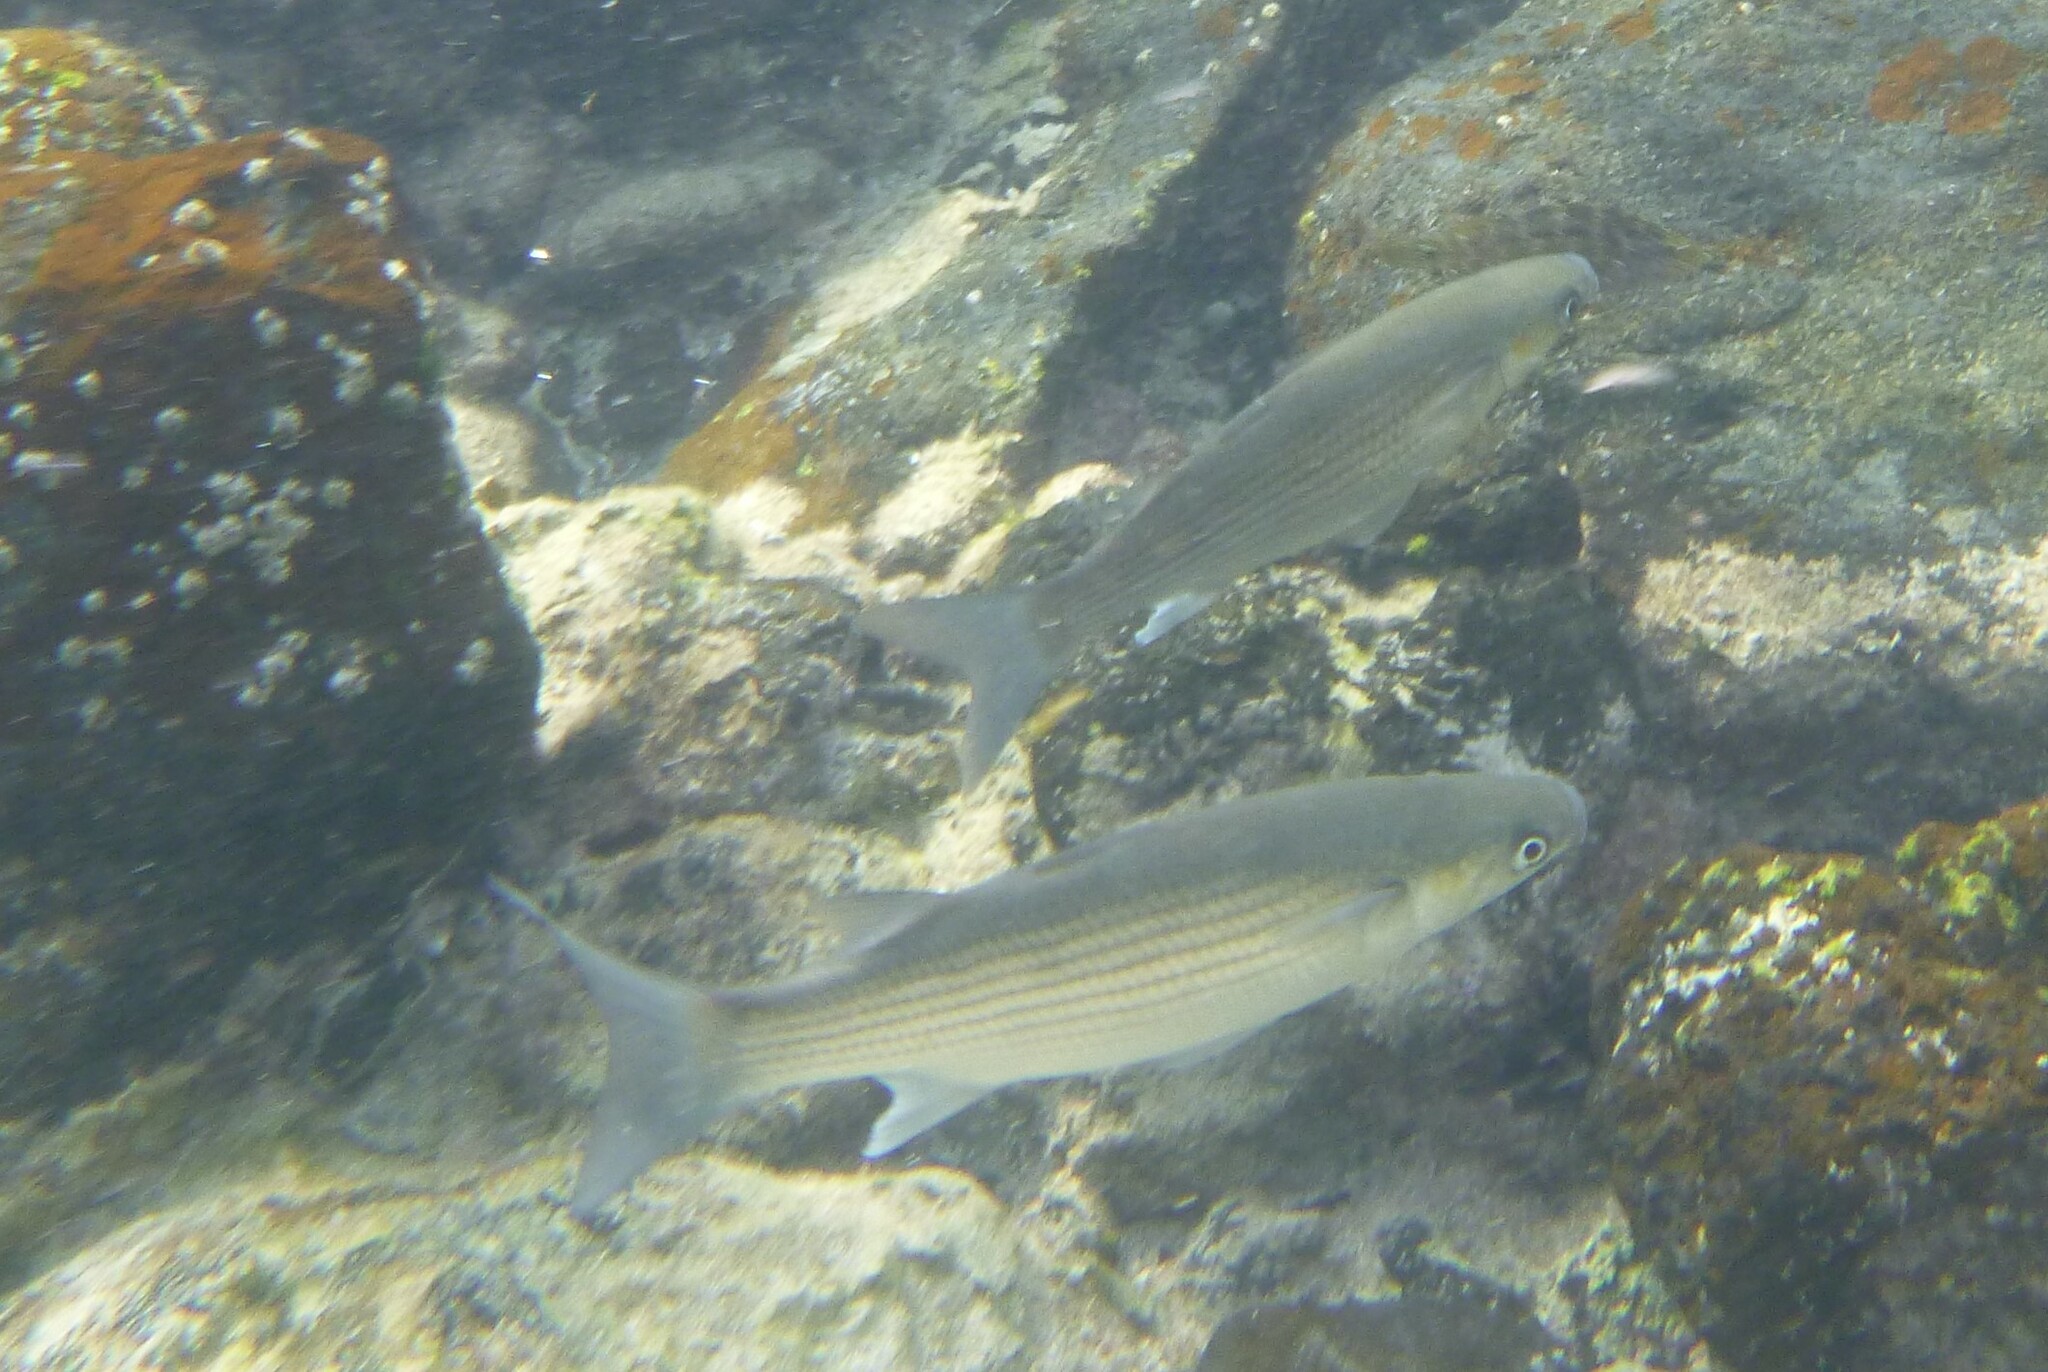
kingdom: Animalia
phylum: Chordata
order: Mugiliformes
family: Mugilidae
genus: Chelon
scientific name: Chelon labrosus
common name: Thick-lipped mullet
